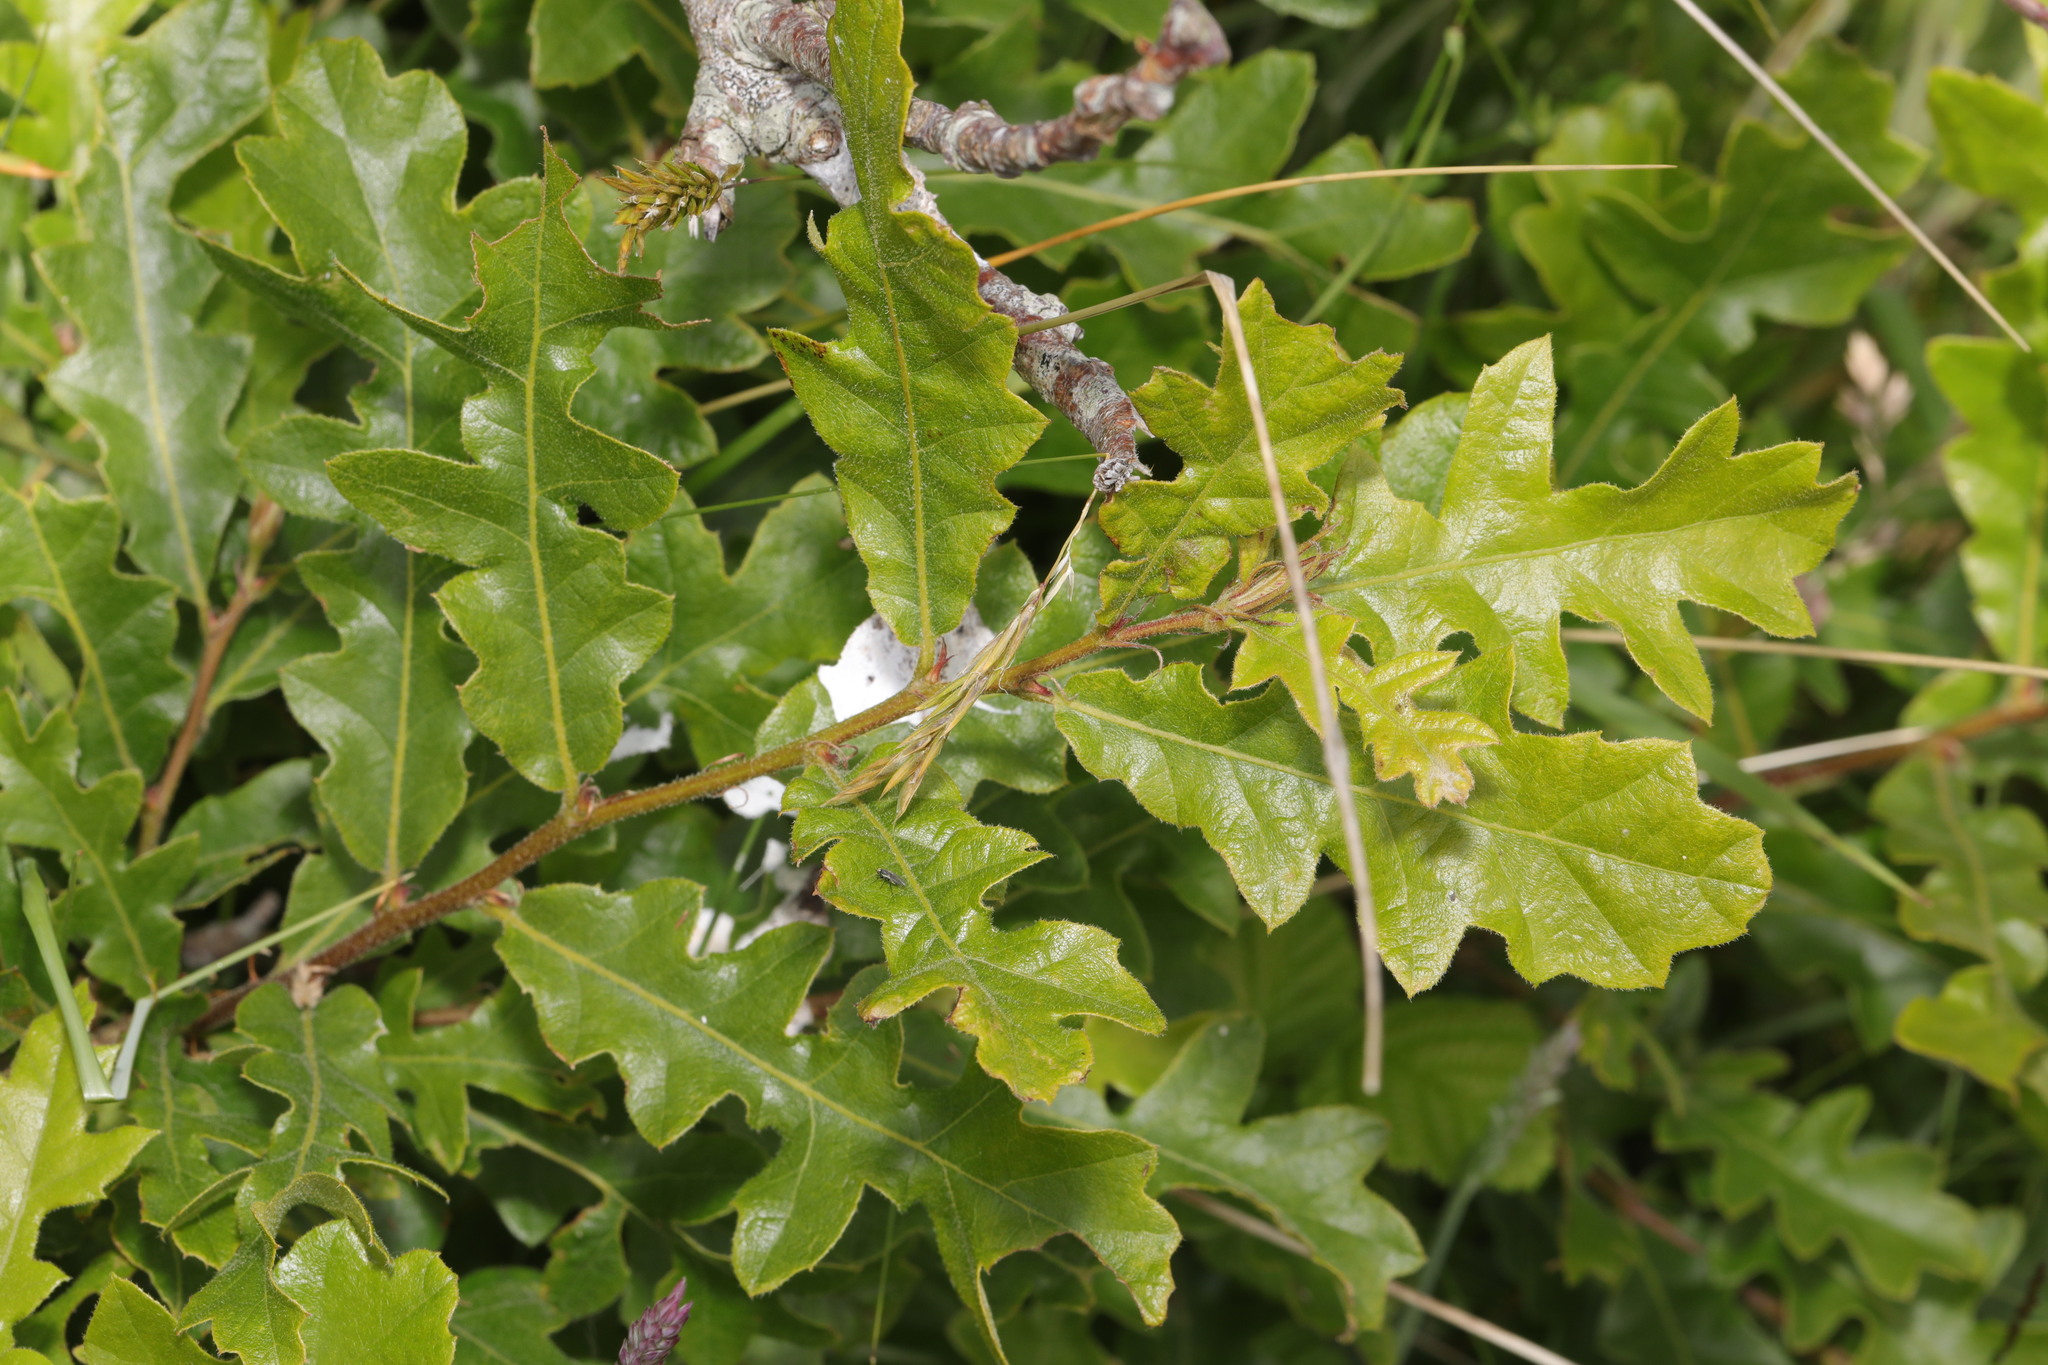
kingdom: Plantae
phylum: Tracheophyta
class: Magnoliopsida
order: Fagales
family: Fagaceae
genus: Quercus
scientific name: Quercus cerris
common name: Turkey oak
